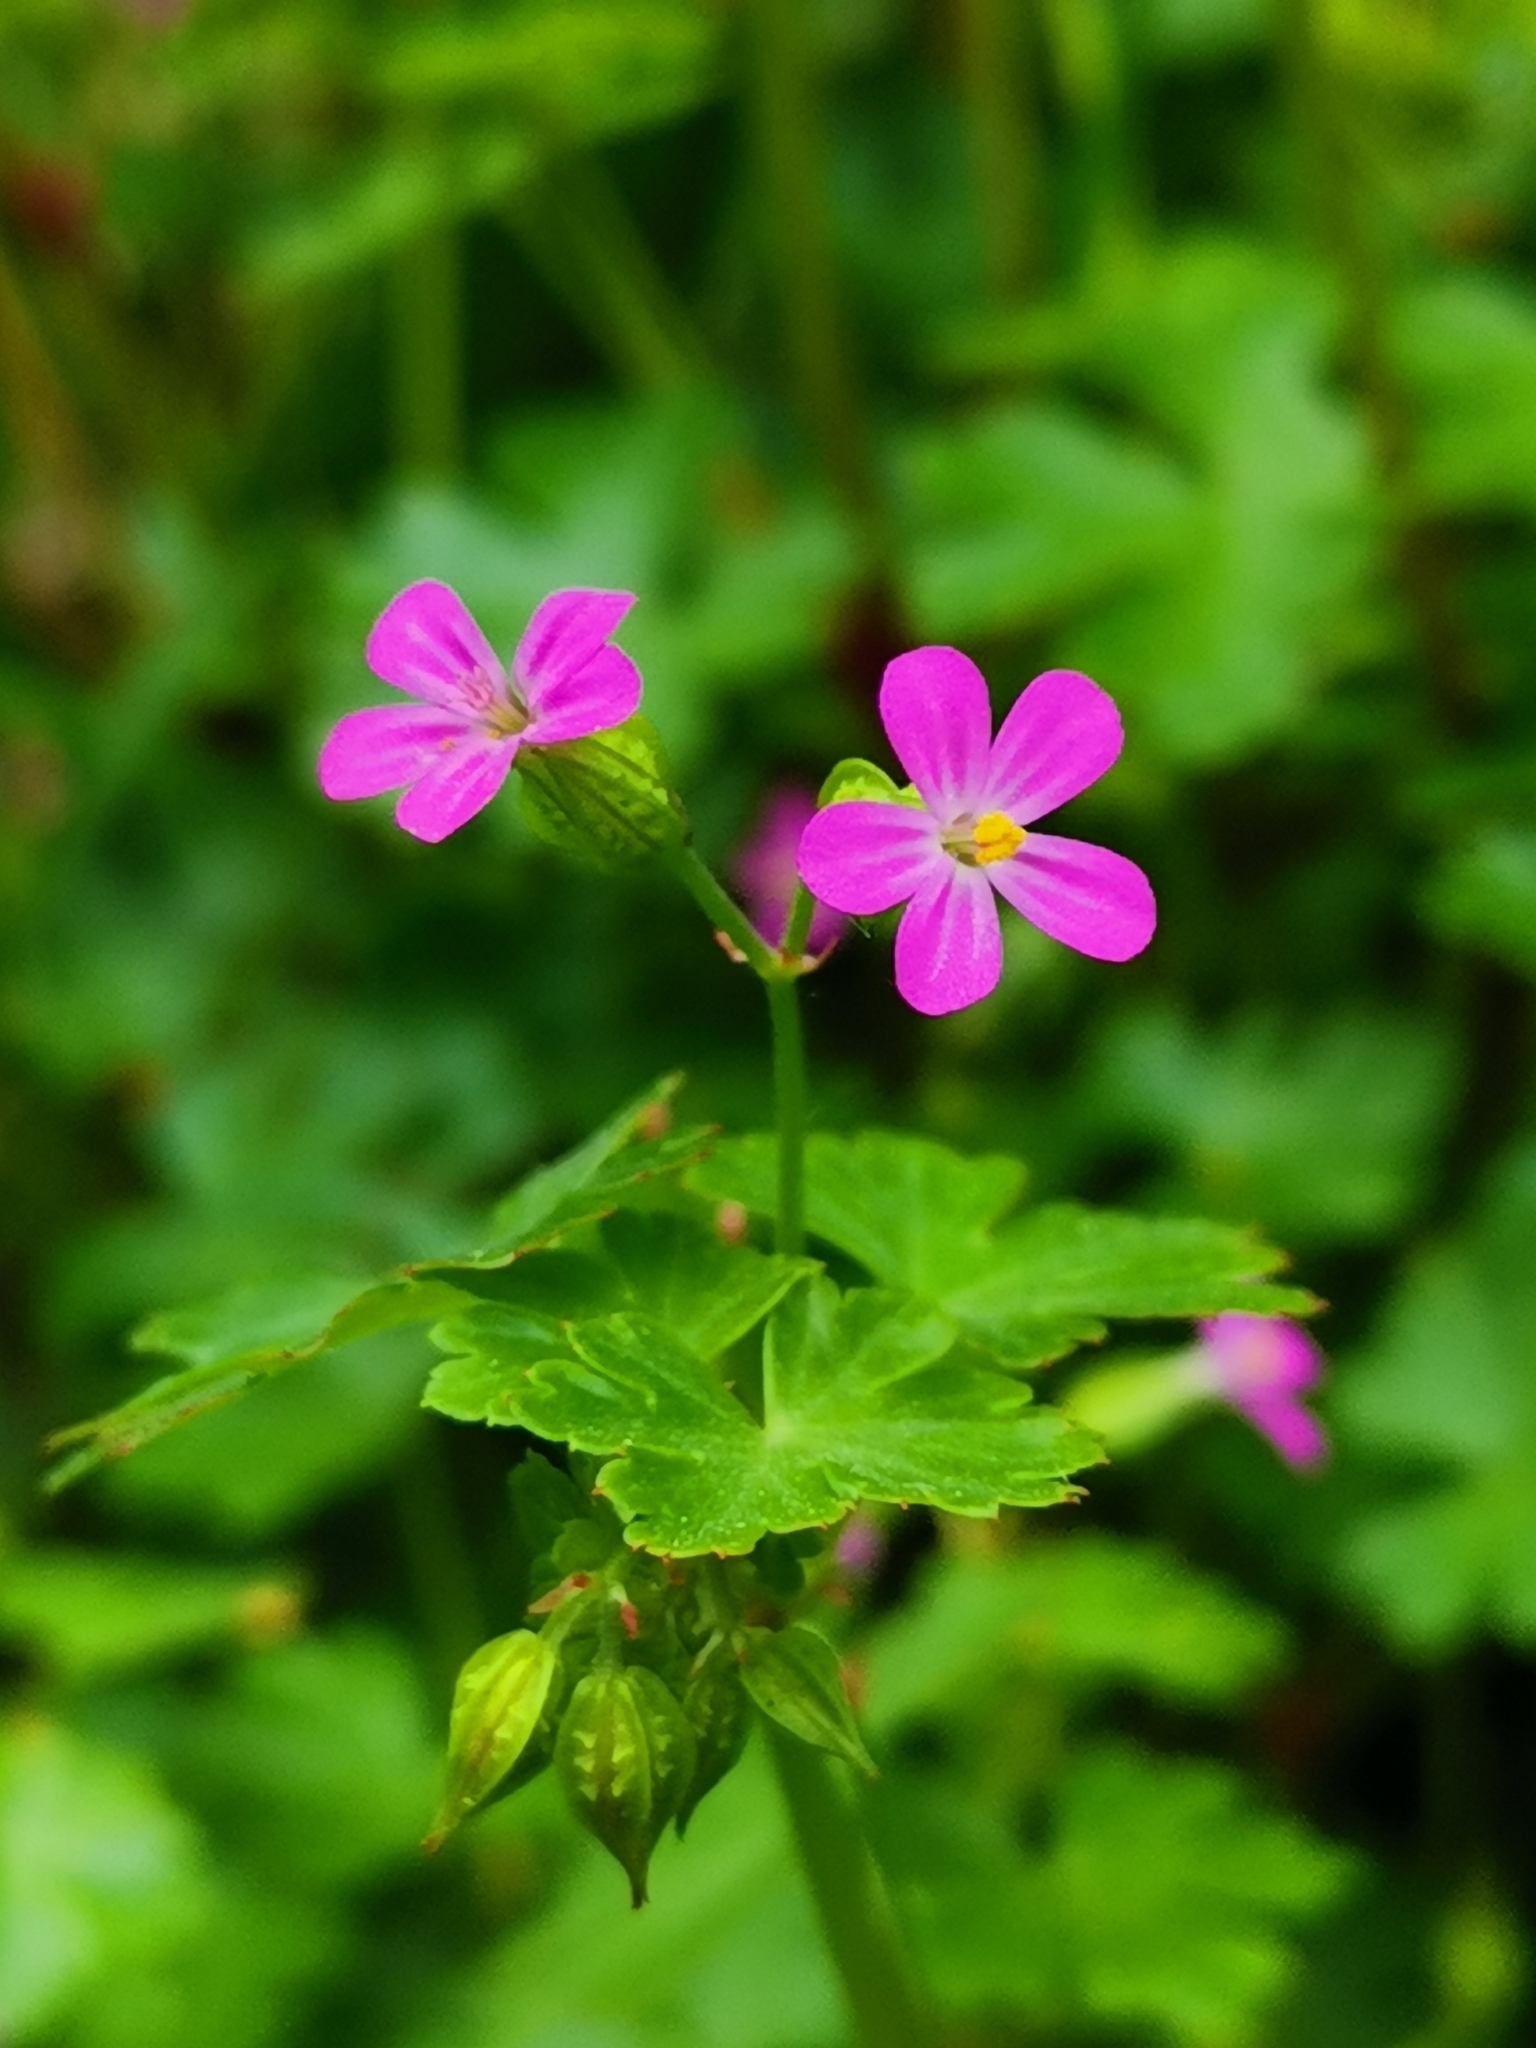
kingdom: Plantae
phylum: Tracheophyta
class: Magnoliopsida
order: Geraniales
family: Geraniaceae
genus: Geranium
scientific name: Geranium lucidum
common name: Shining crane's-bill
